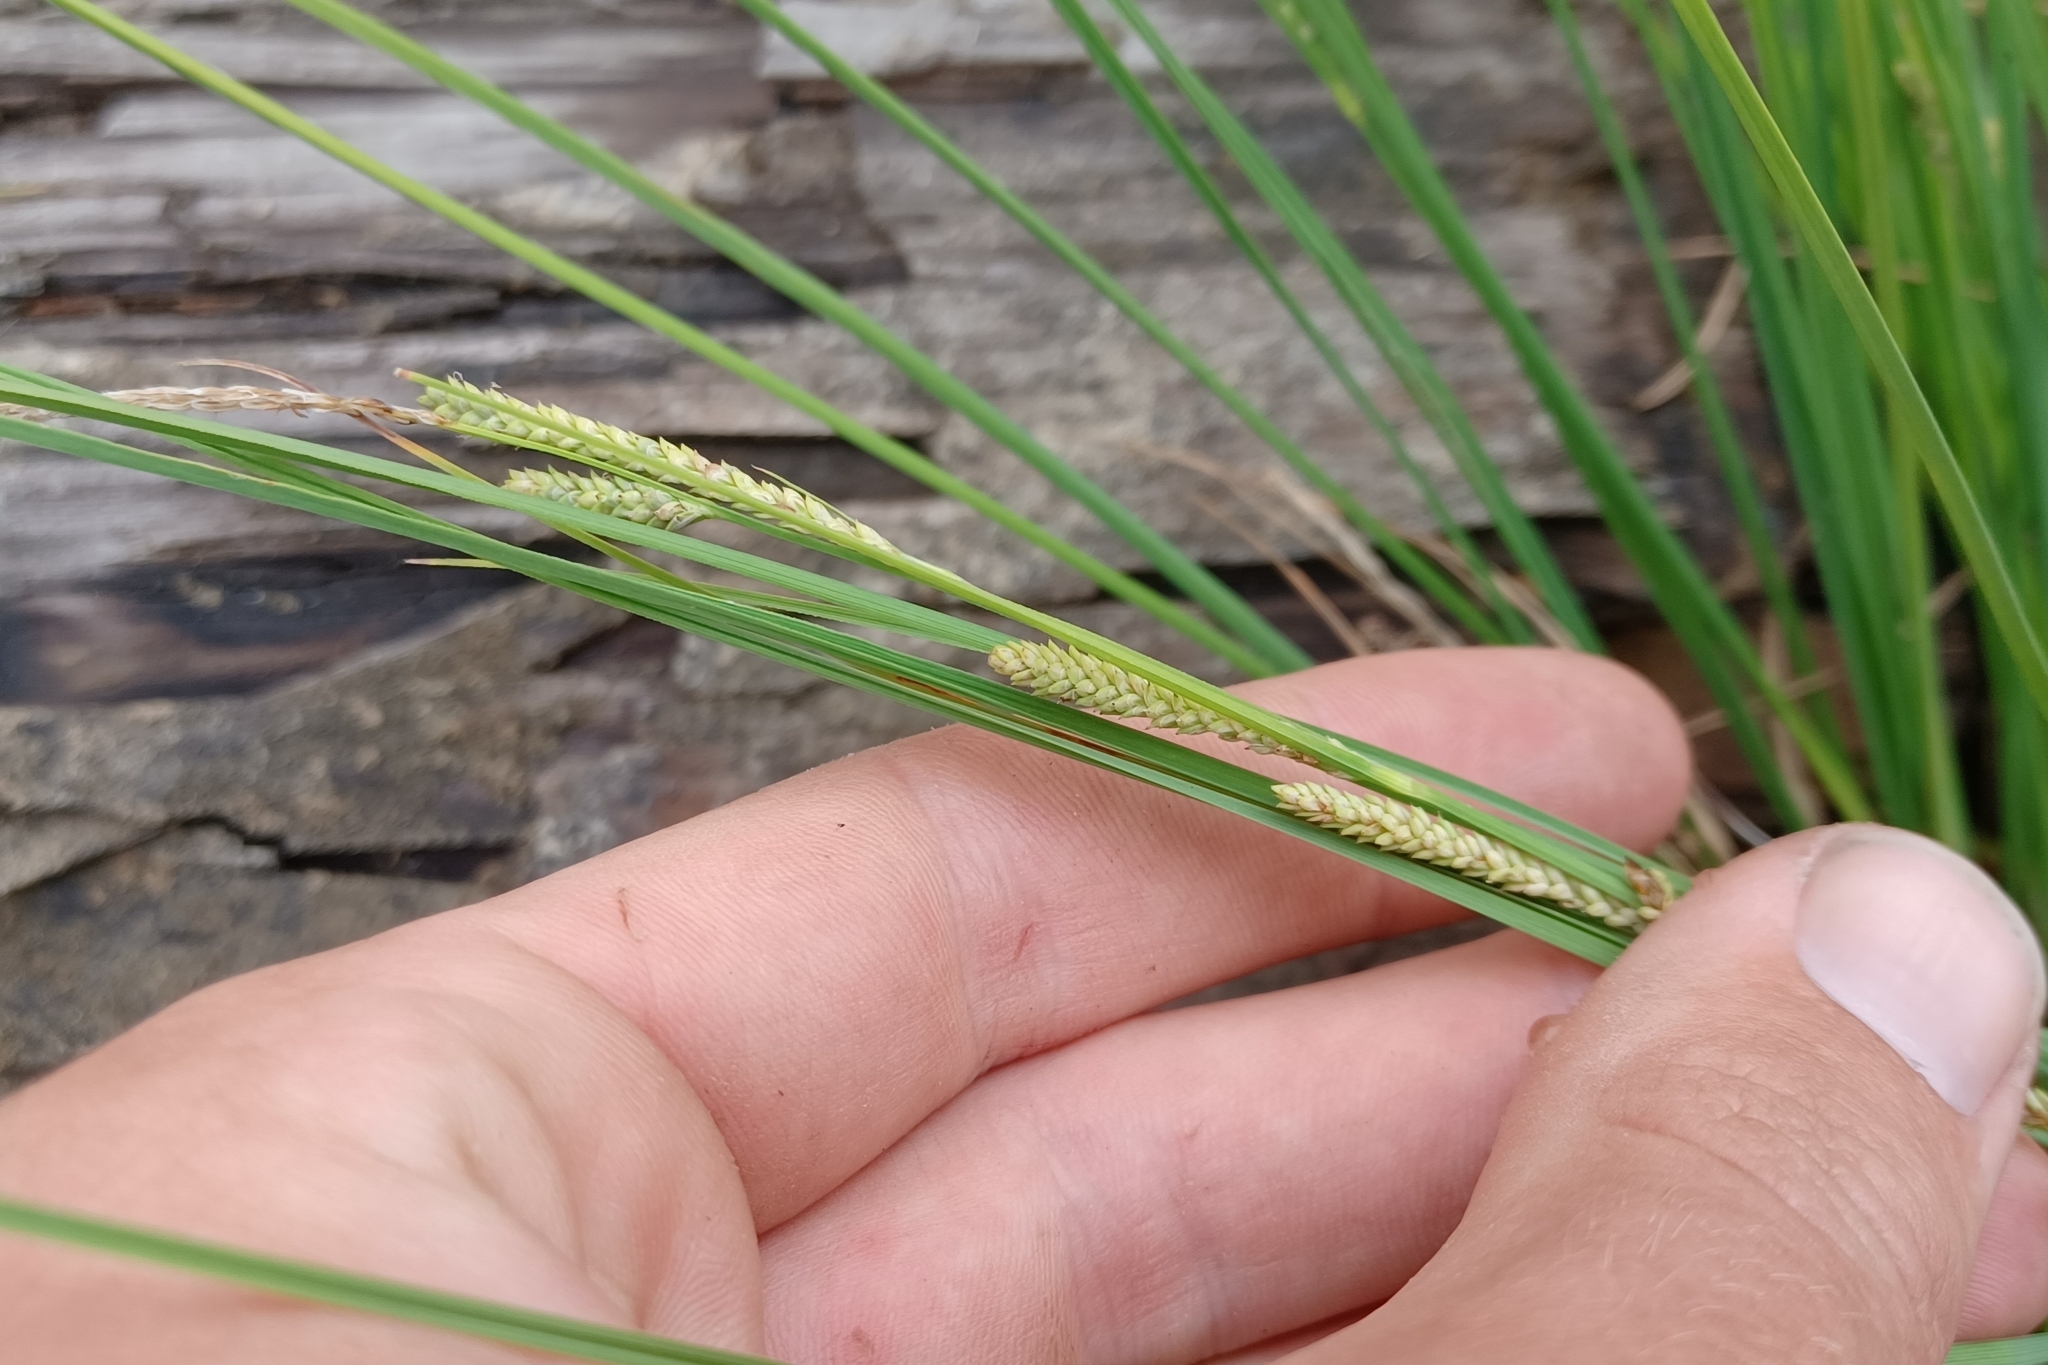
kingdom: Plantae
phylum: Tracheophyta
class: Liliopsida
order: Poales
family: Cyperaceae
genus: Carex
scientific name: Carex lenticularis
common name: Lakeshore sedge
